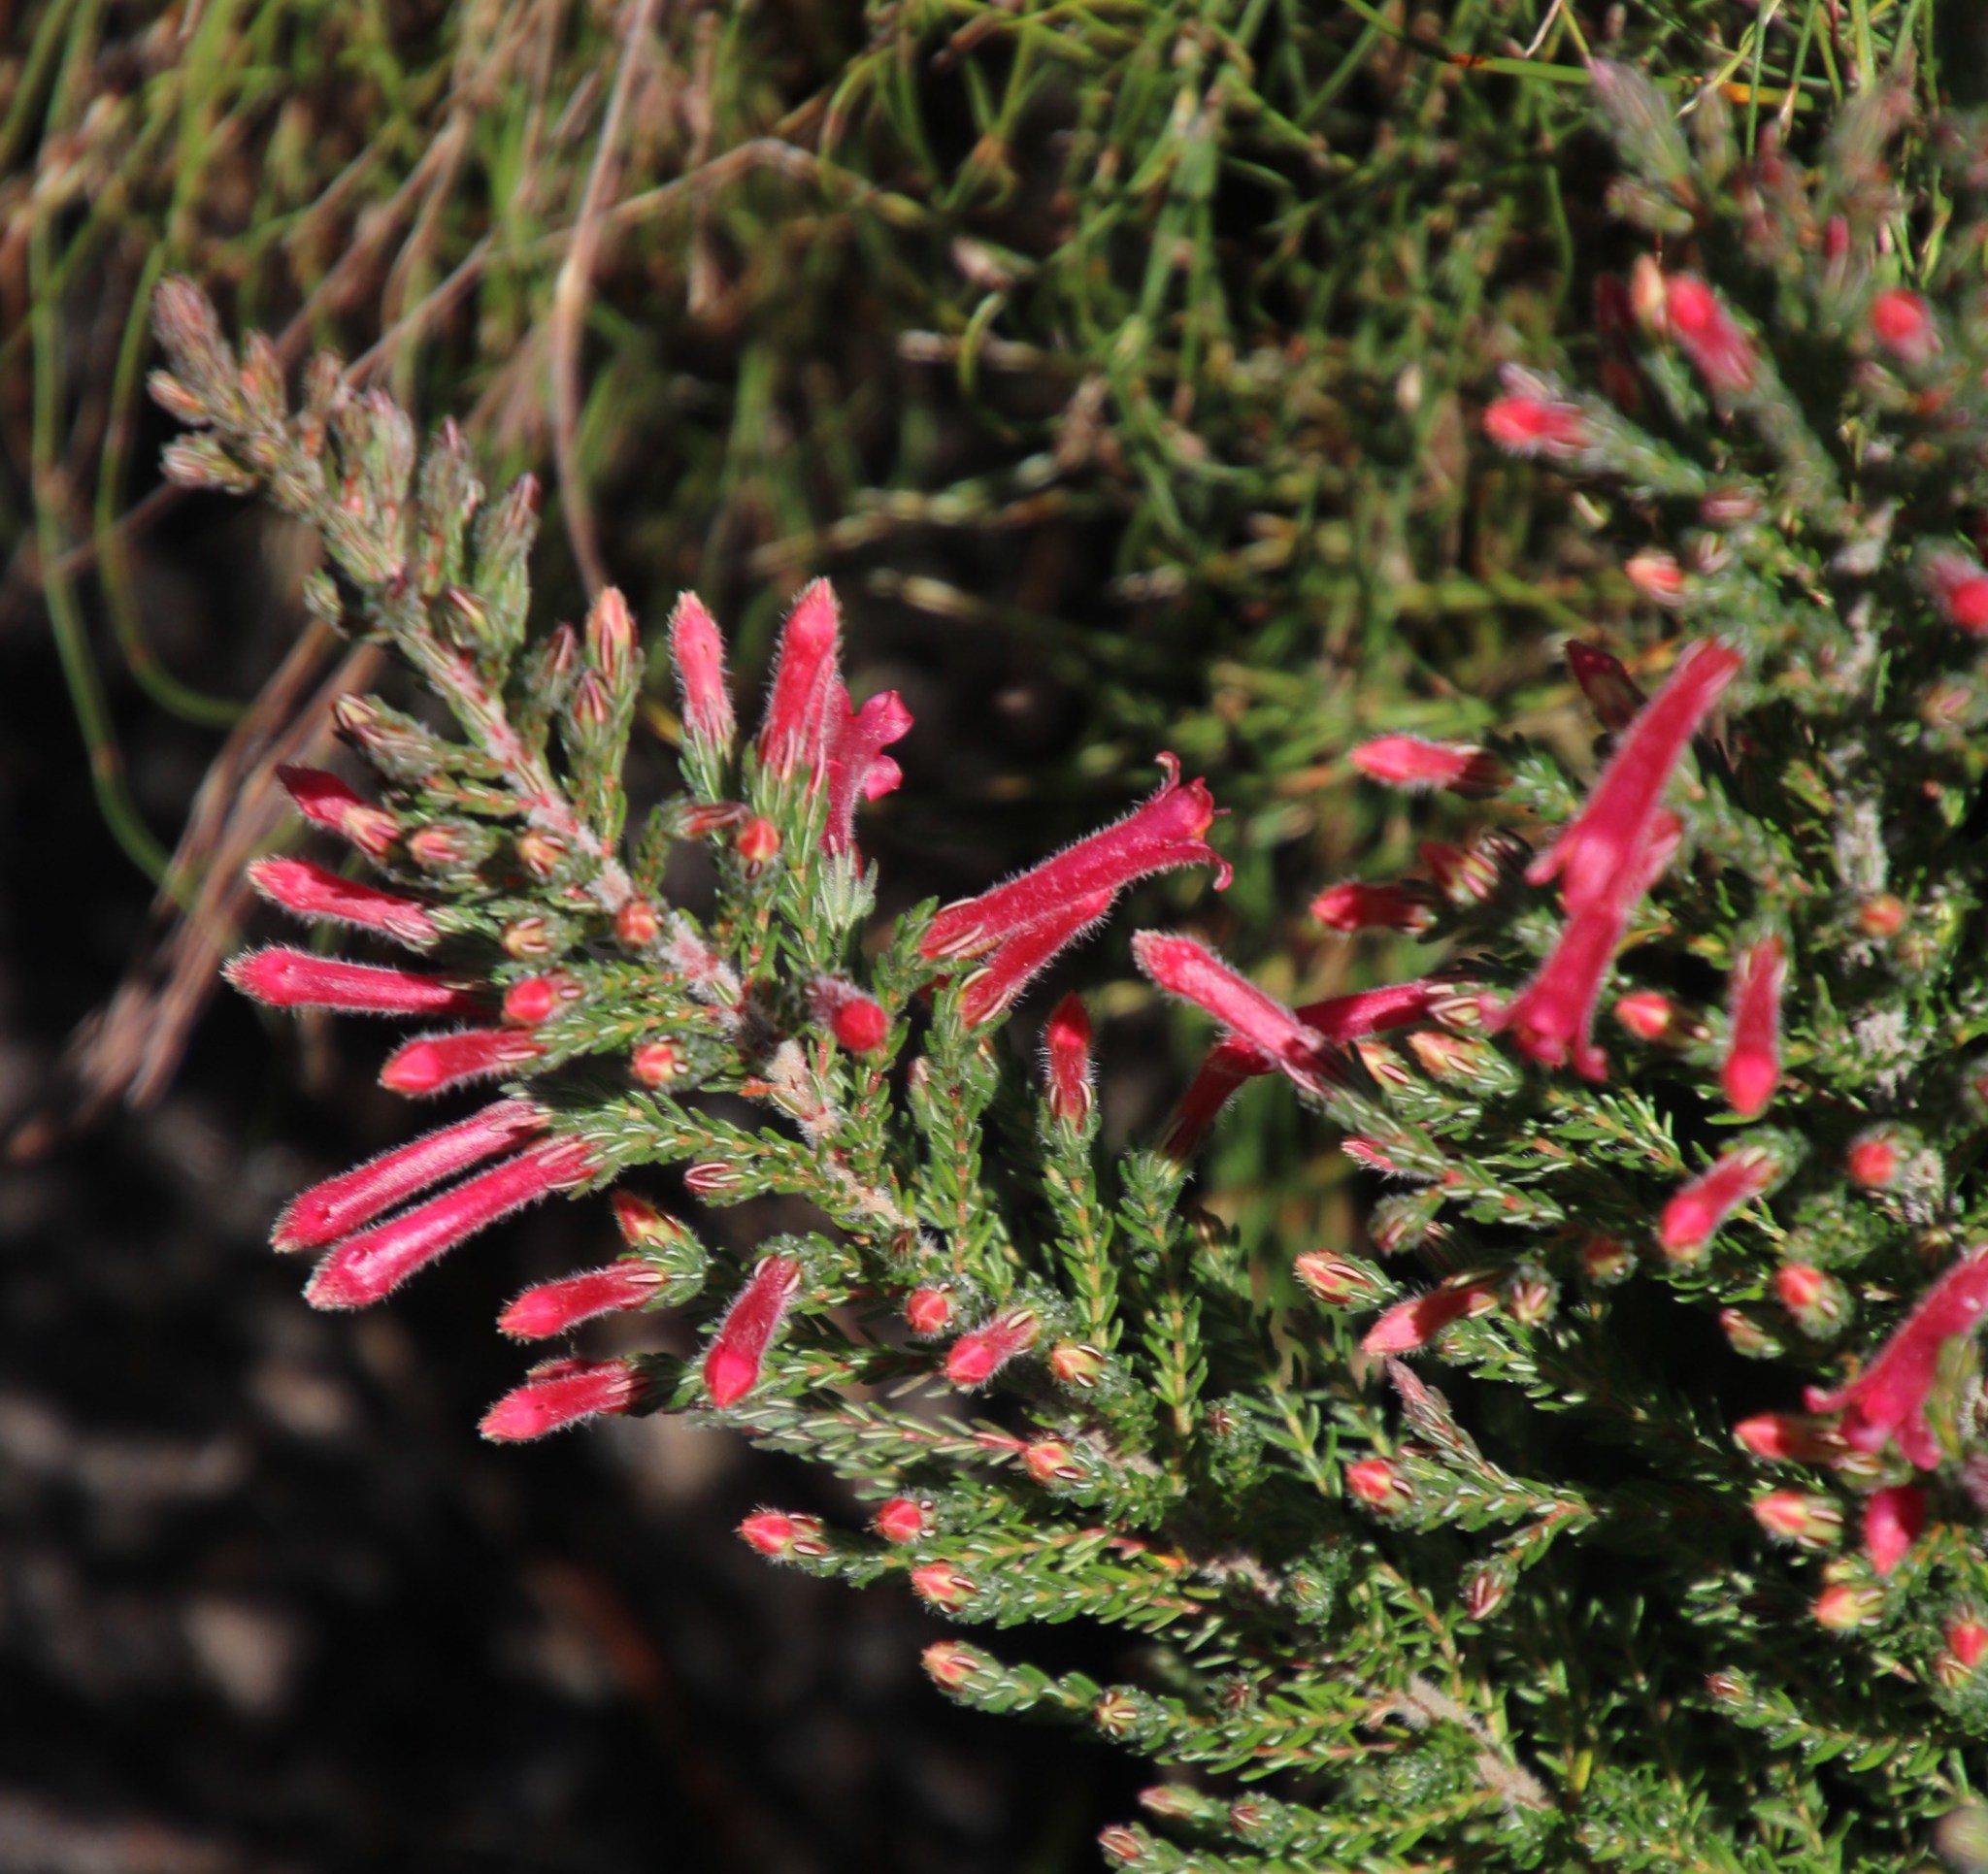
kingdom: Plantae
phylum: Tracheophyta
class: Magnoliopsida
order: Ericales
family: Ericaceae
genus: Erica
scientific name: Erica curviflora
